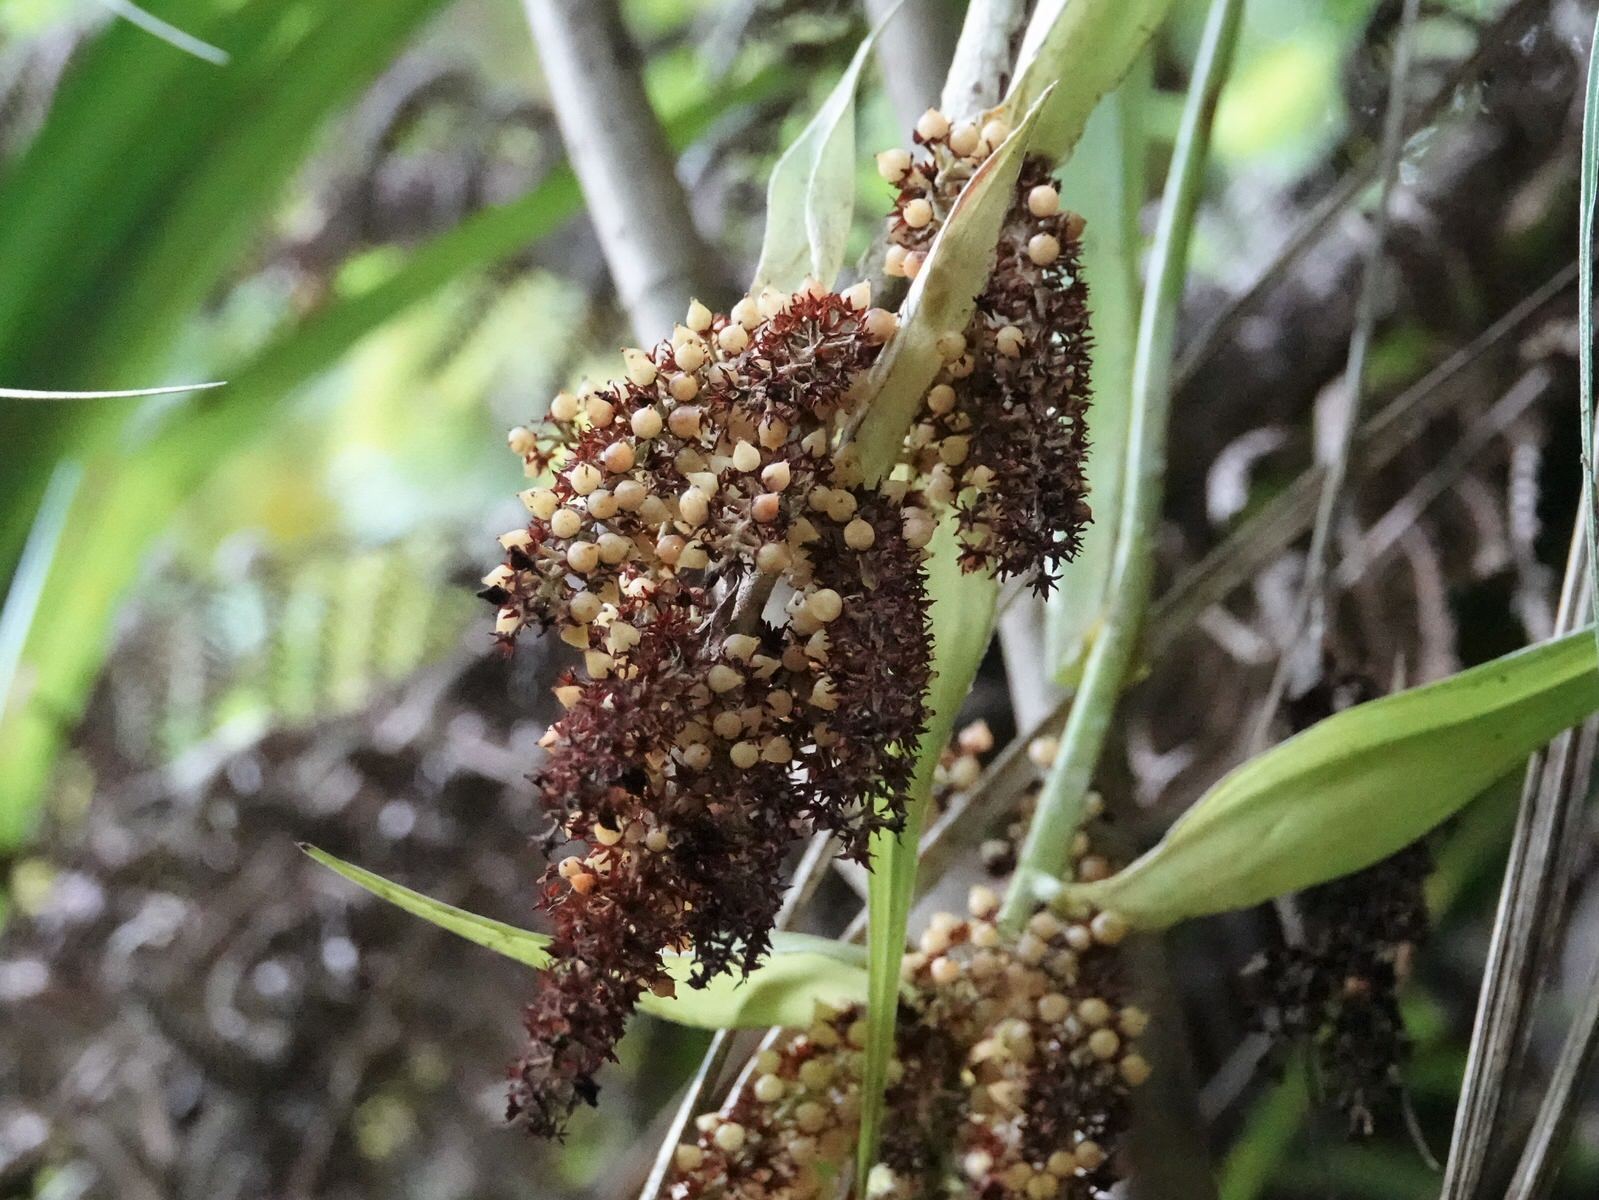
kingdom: Plantae
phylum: Tracheophyta
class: Liliopsida
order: Asparagales
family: Asteliaceae
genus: Astelia
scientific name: Astelia solandri
